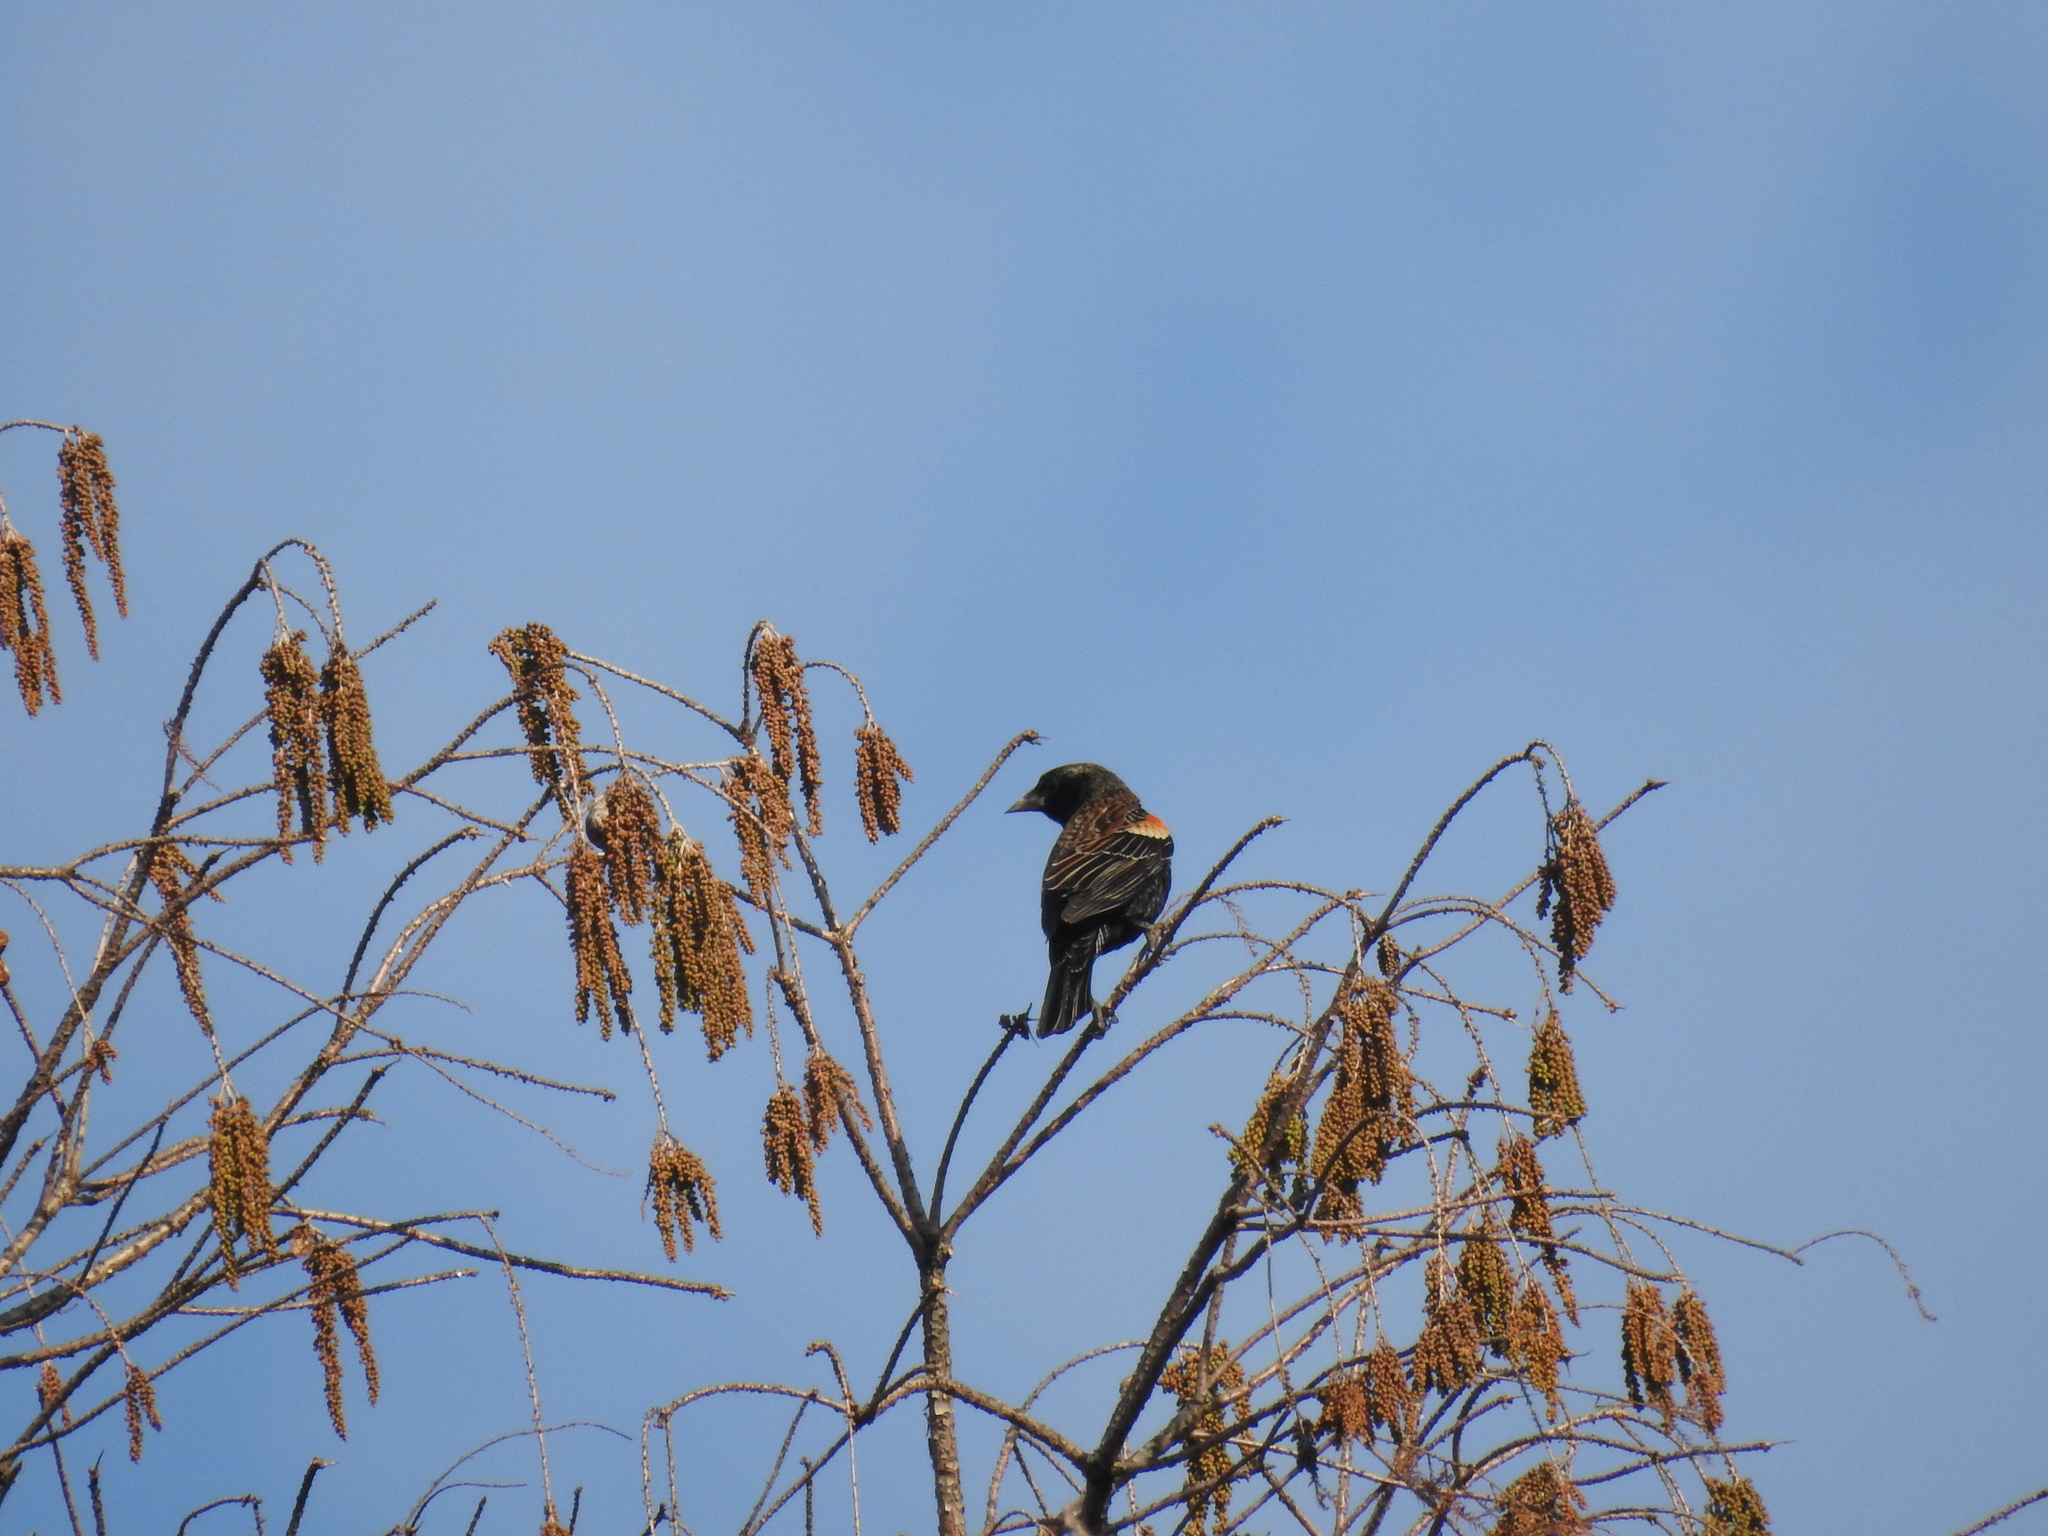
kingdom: Animalia
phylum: Chordata
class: Aves
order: Passeriformes
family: Icteridae
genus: Agelaius
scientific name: Agelaius phoeniceus
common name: Red-winged blackbird
